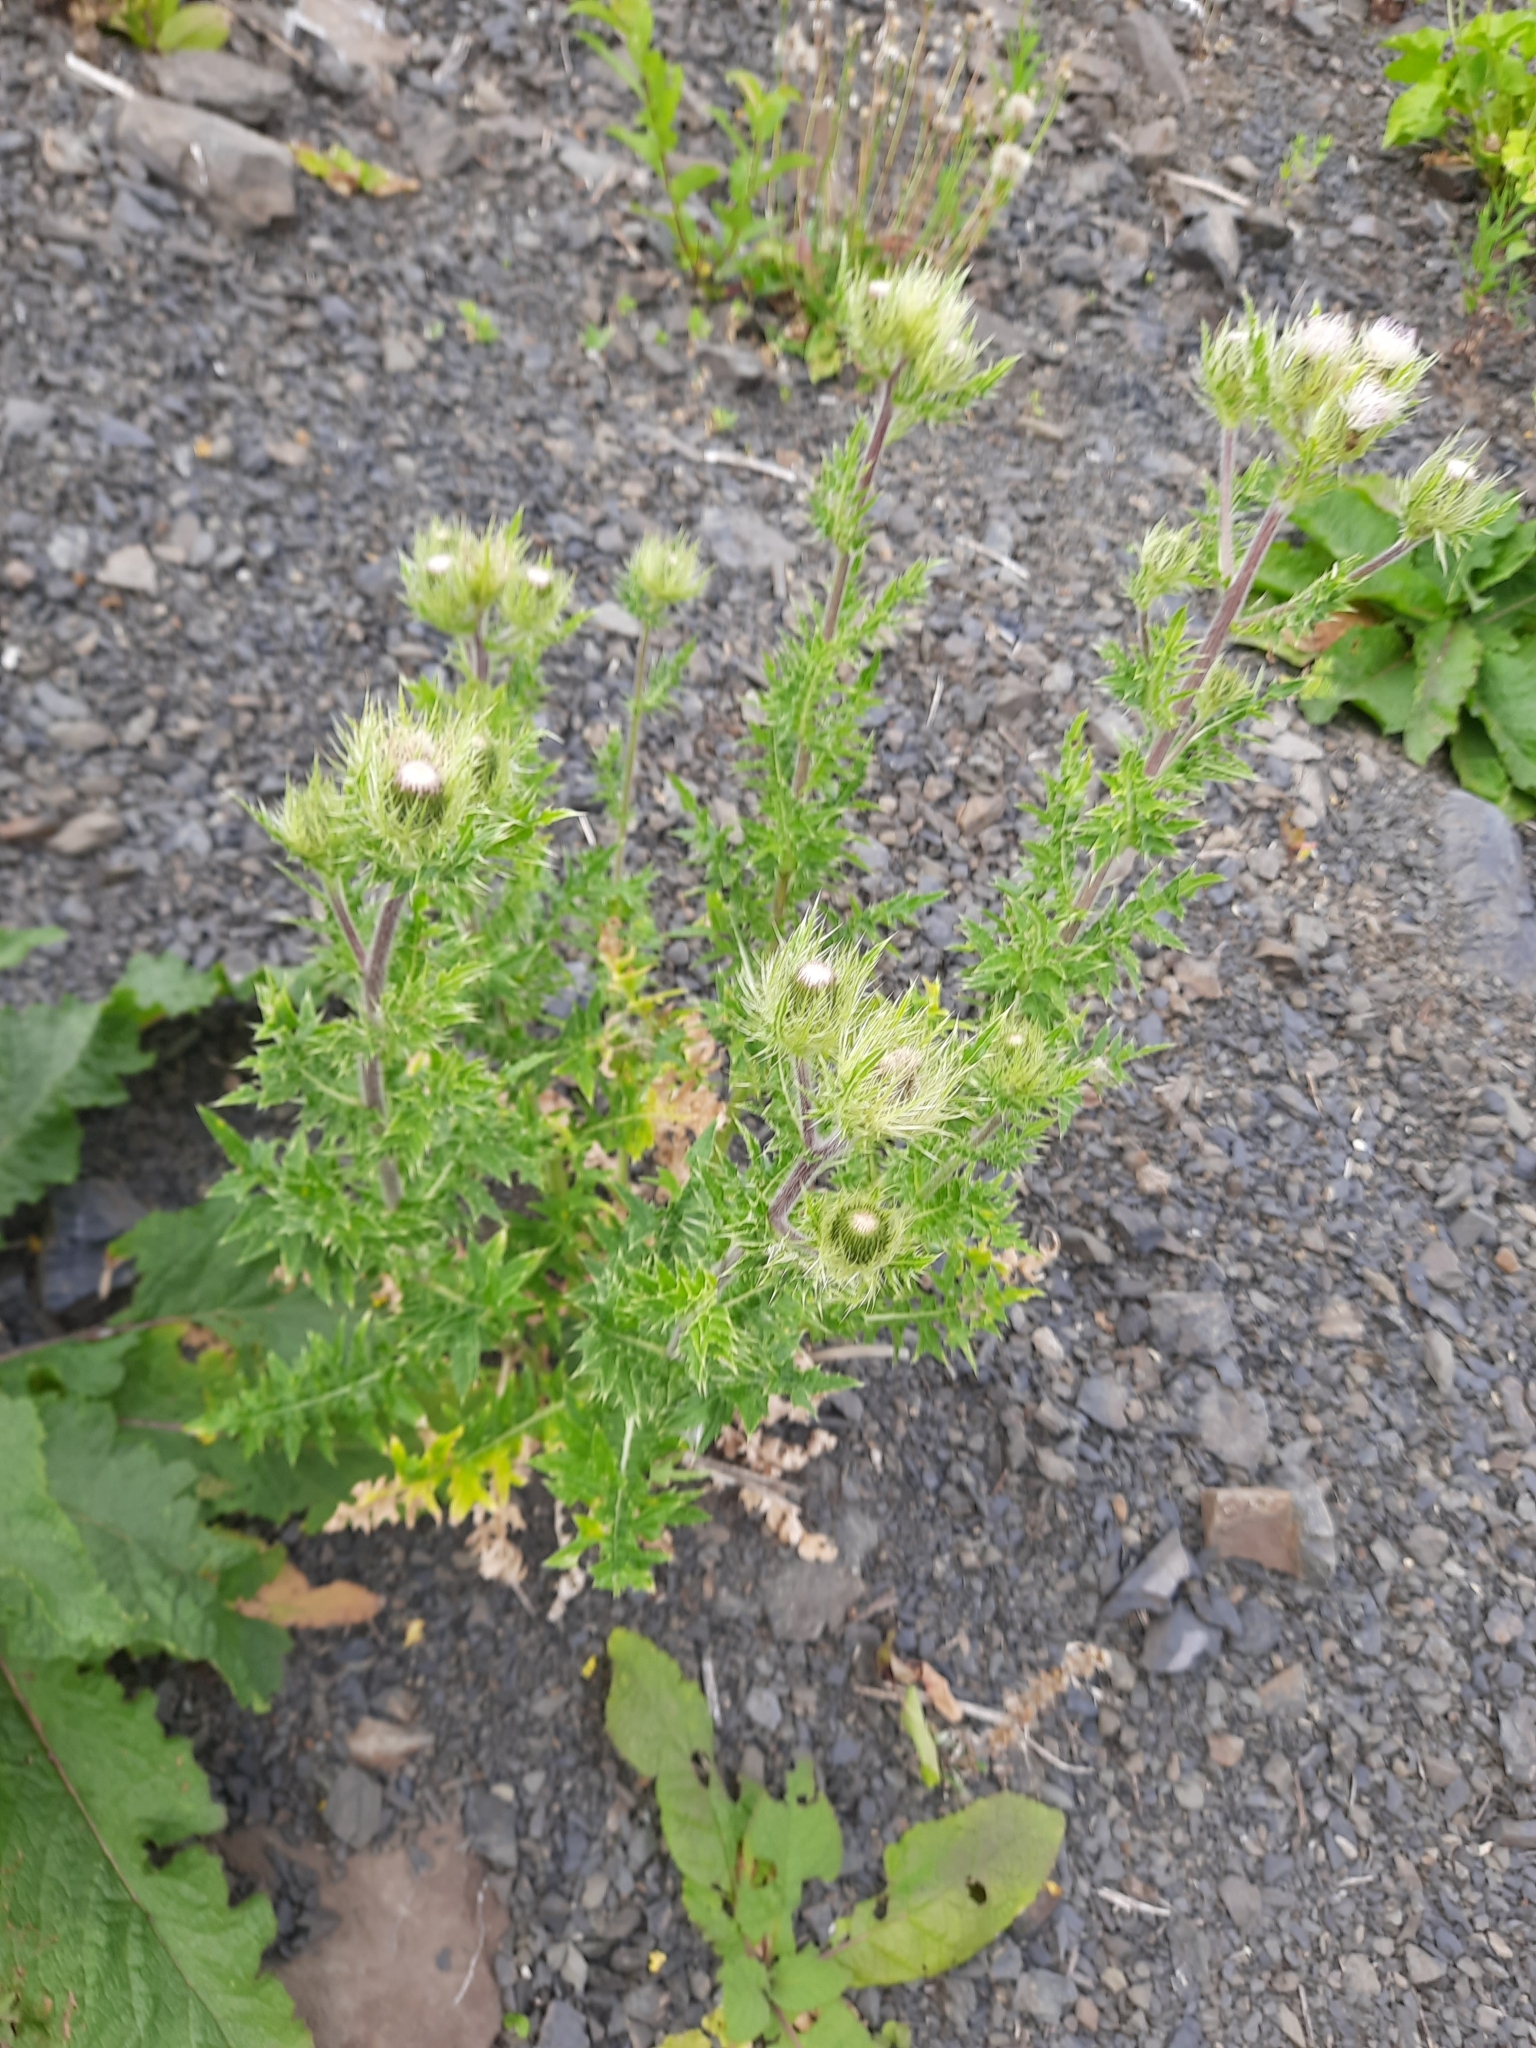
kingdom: Plantae
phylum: Tracheophyta
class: Magnoliopsida
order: Asterales
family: Asteraceae
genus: Cirsium
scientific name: Cirsium obvallatum
